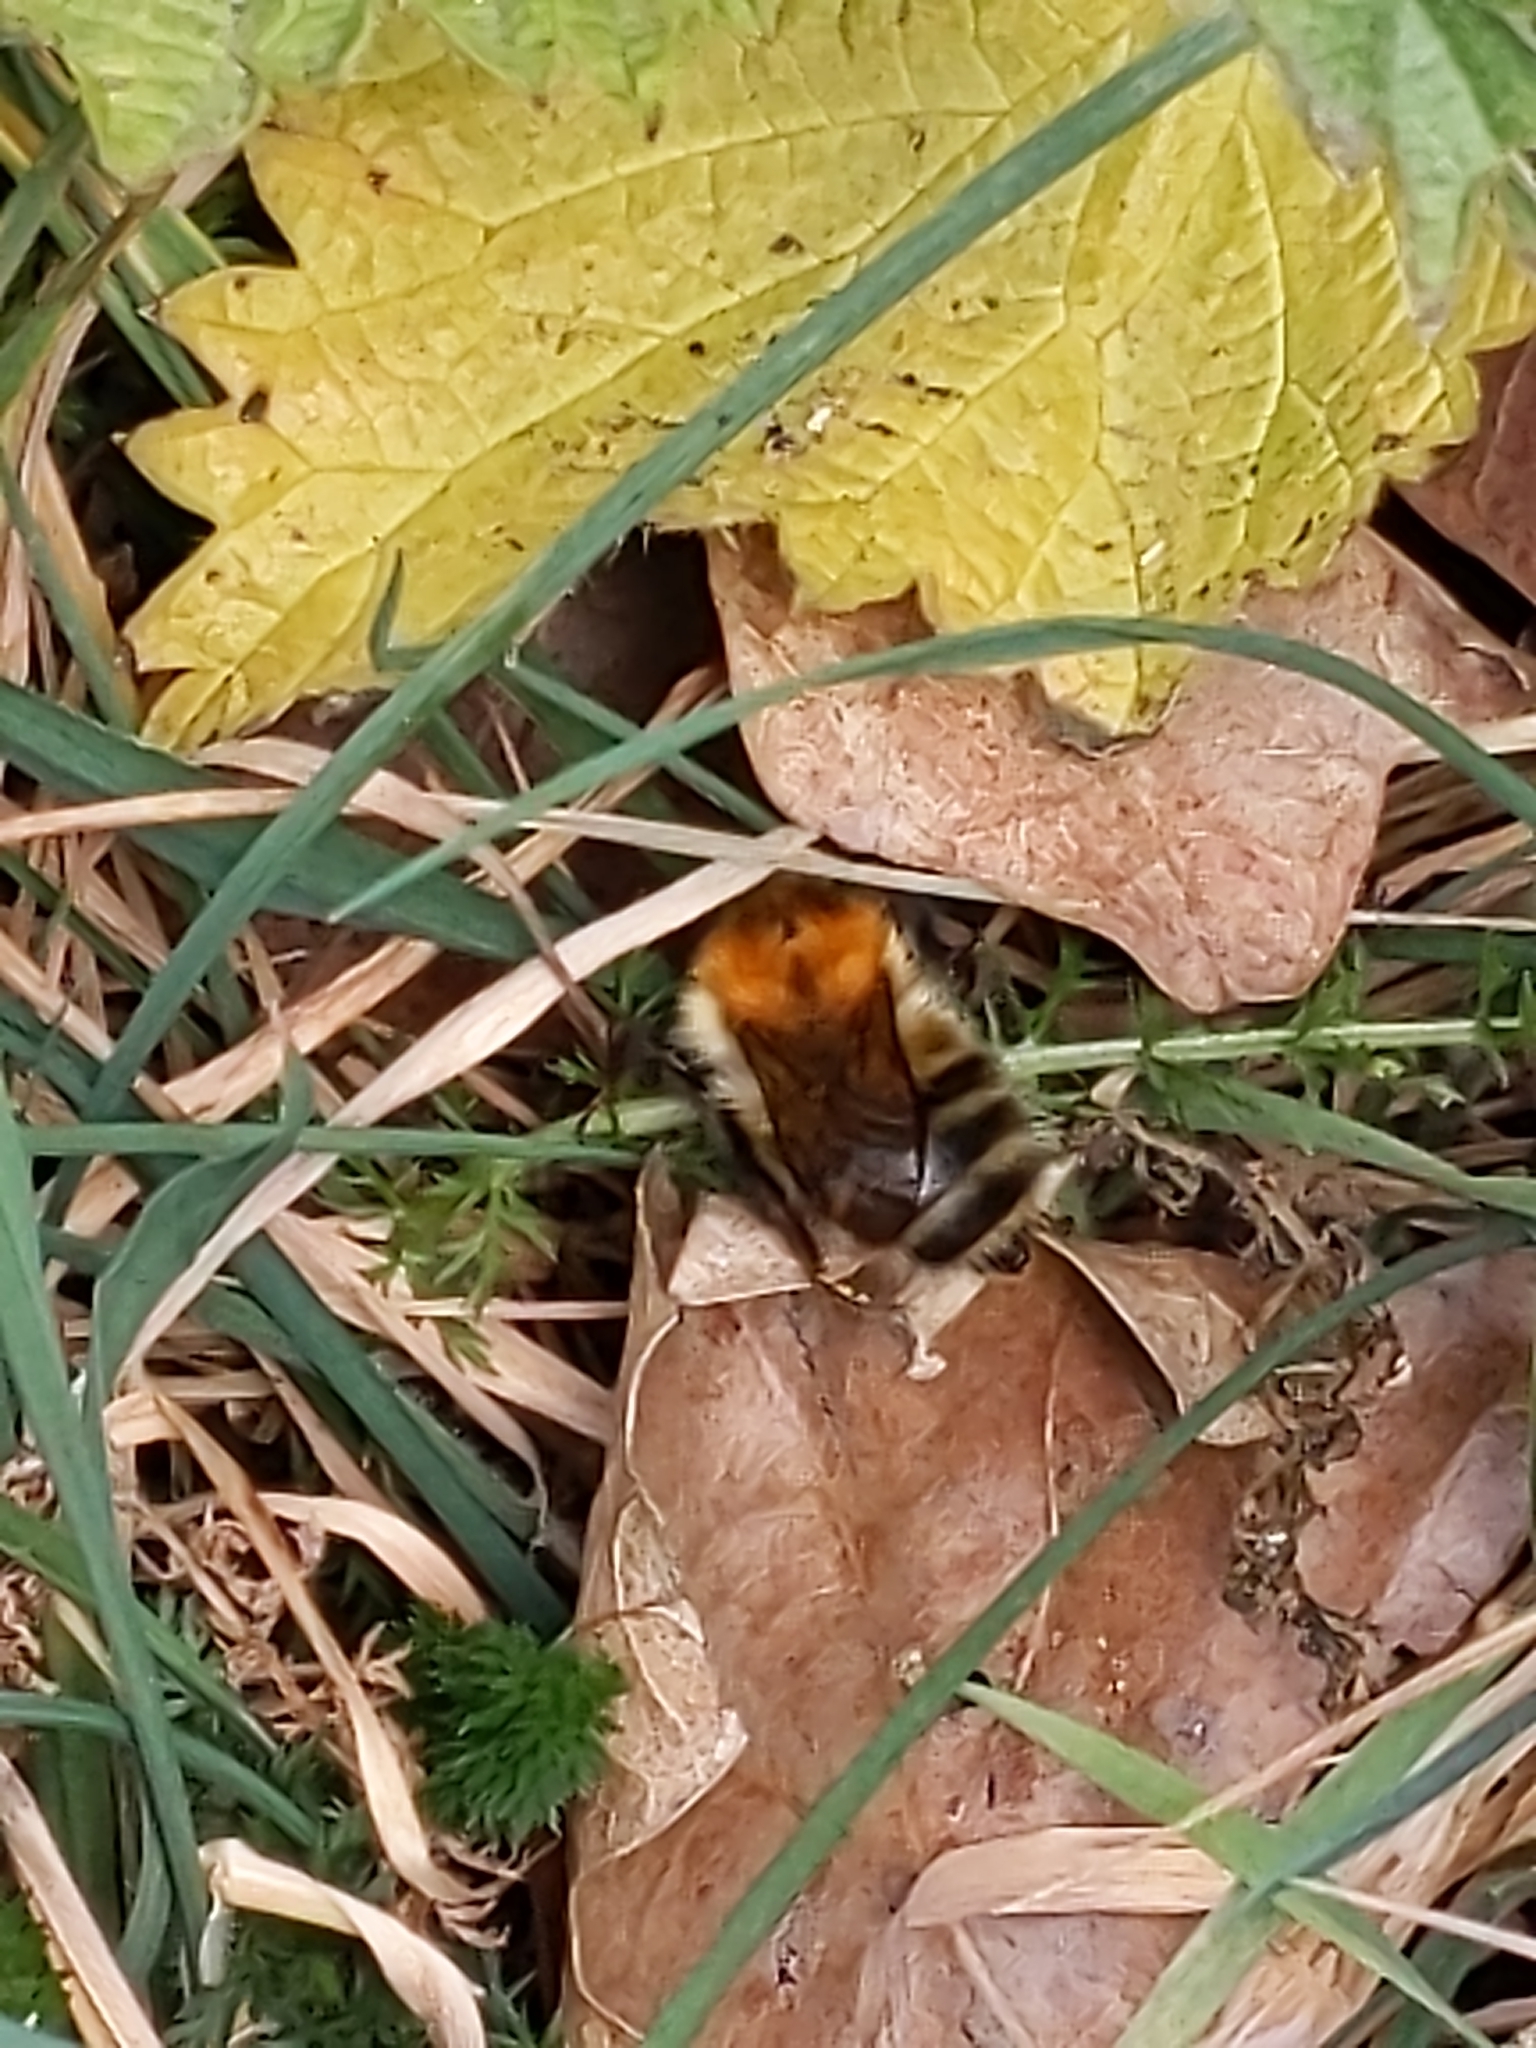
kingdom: Animalia
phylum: Arthropoda
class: Insecta
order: Hymenoptera
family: Apidae
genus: Bombus
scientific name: Bombus pascuorum
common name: Common carder bee
